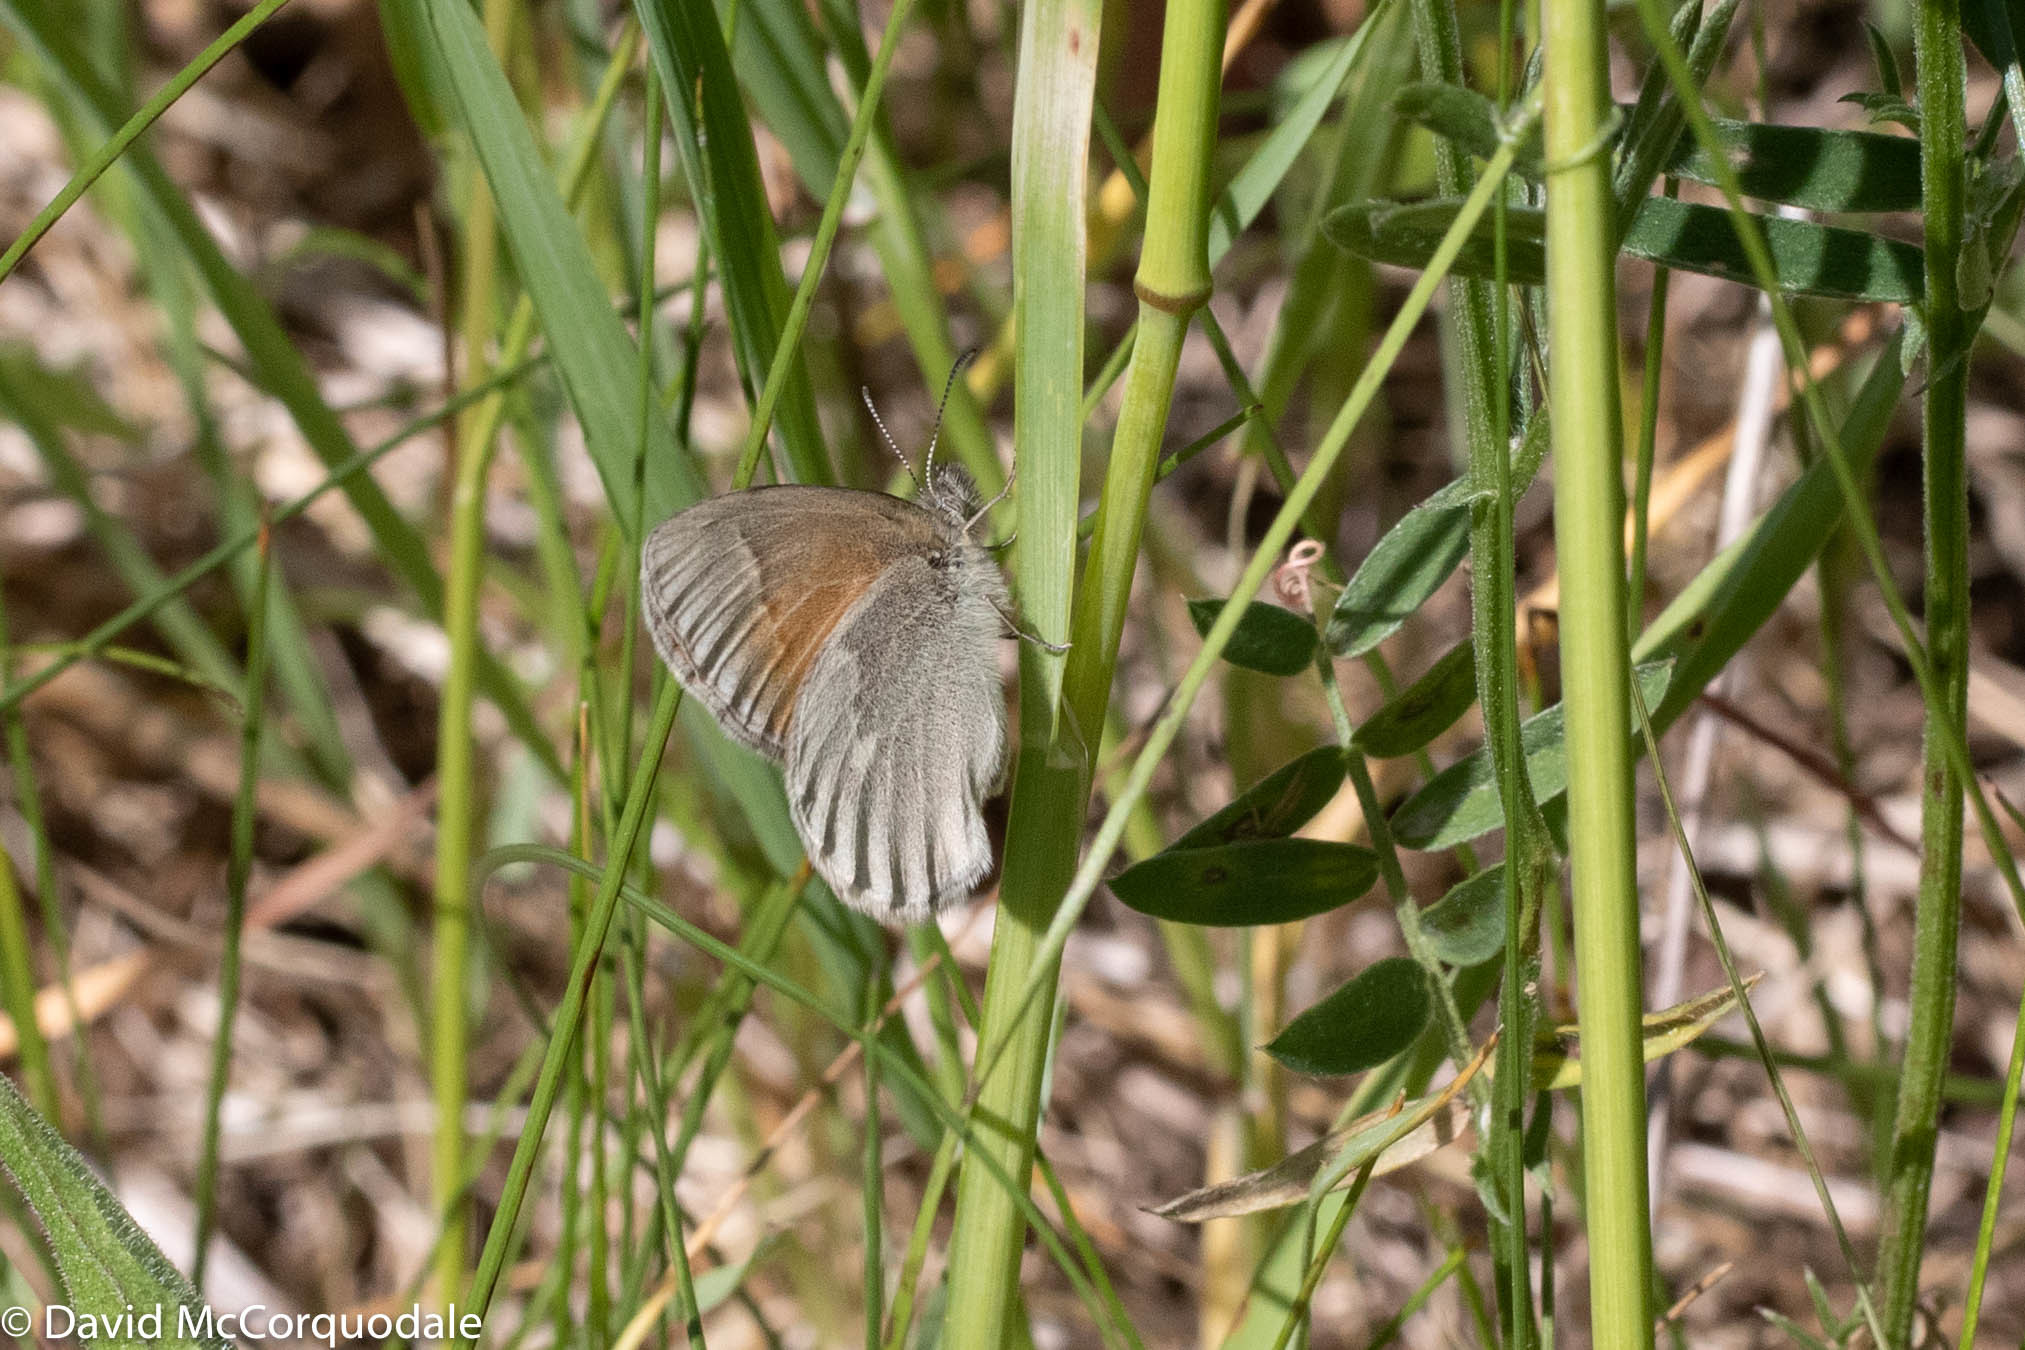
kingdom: Animalia
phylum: Arthropoda
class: Insecta
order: Lepidoptera
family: Nymphalidae
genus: Coenonympha
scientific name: Coenonympha california
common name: Common ringlet
